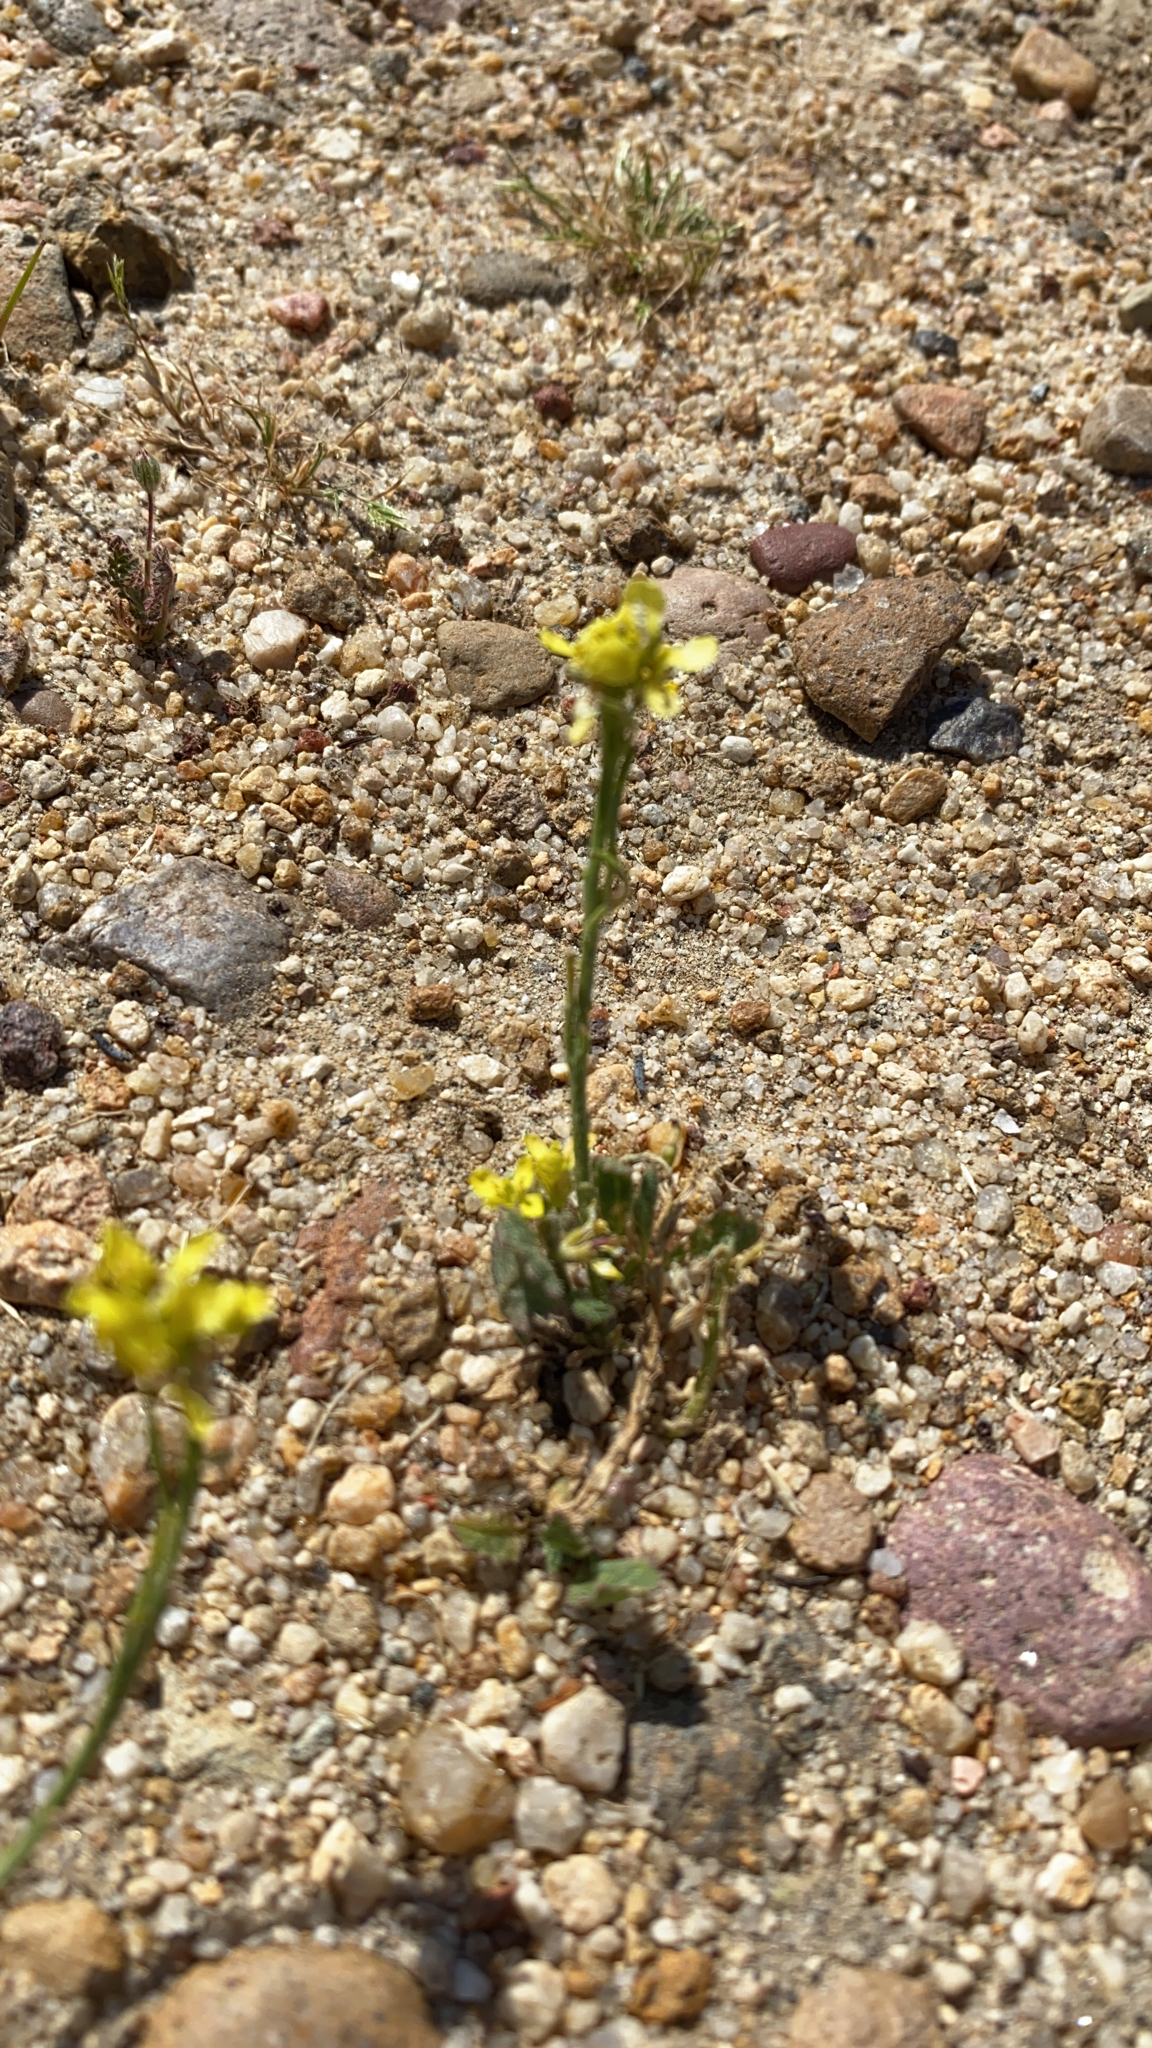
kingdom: Plantae
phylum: Tracheophyta
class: Magnoliopsida
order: Brassicales
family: Brassicaceae
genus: Hirschfeldia
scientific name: Hirschfeldia incana
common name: Hoary mustard
